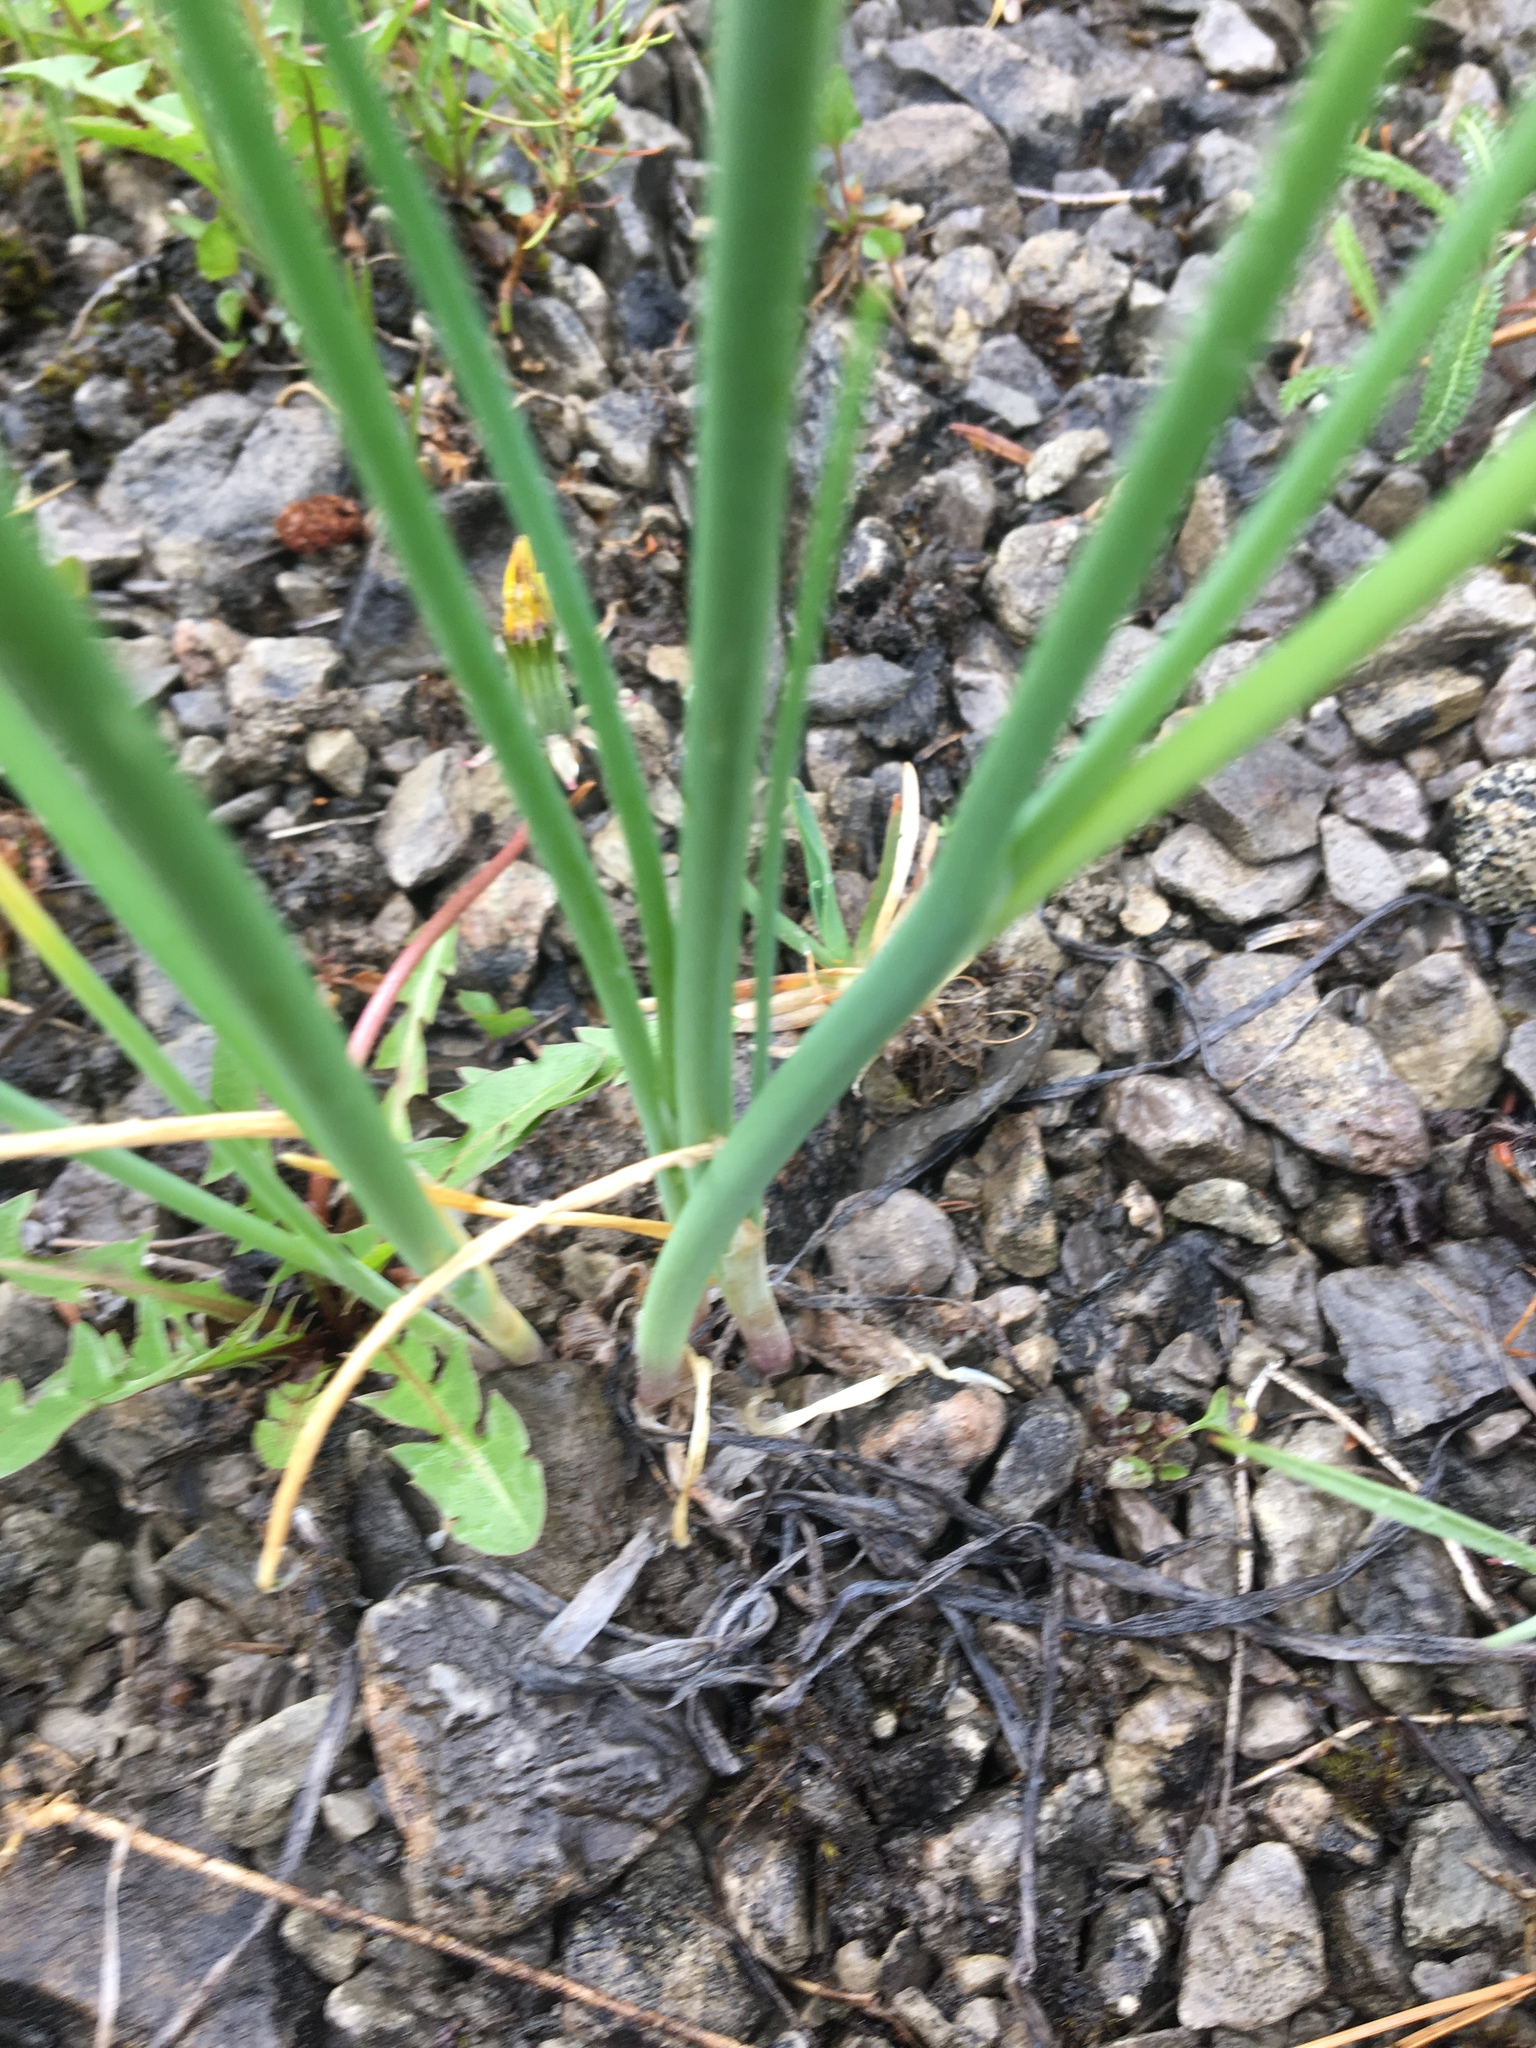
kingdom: Plantae
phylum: Tracheophyta
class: Liliopsida
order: Asparagales
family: Amaryllidaceae
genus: Allium
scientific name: Allium schoenoprasum
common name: Chives
